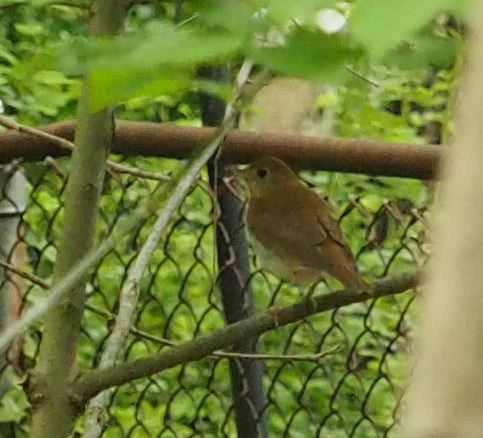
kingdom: Animalia
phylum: Chordata
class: Aves
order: Passeriformes
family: Turdidae
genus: Catharus
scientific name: Catharus fuscescens
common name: Veery
